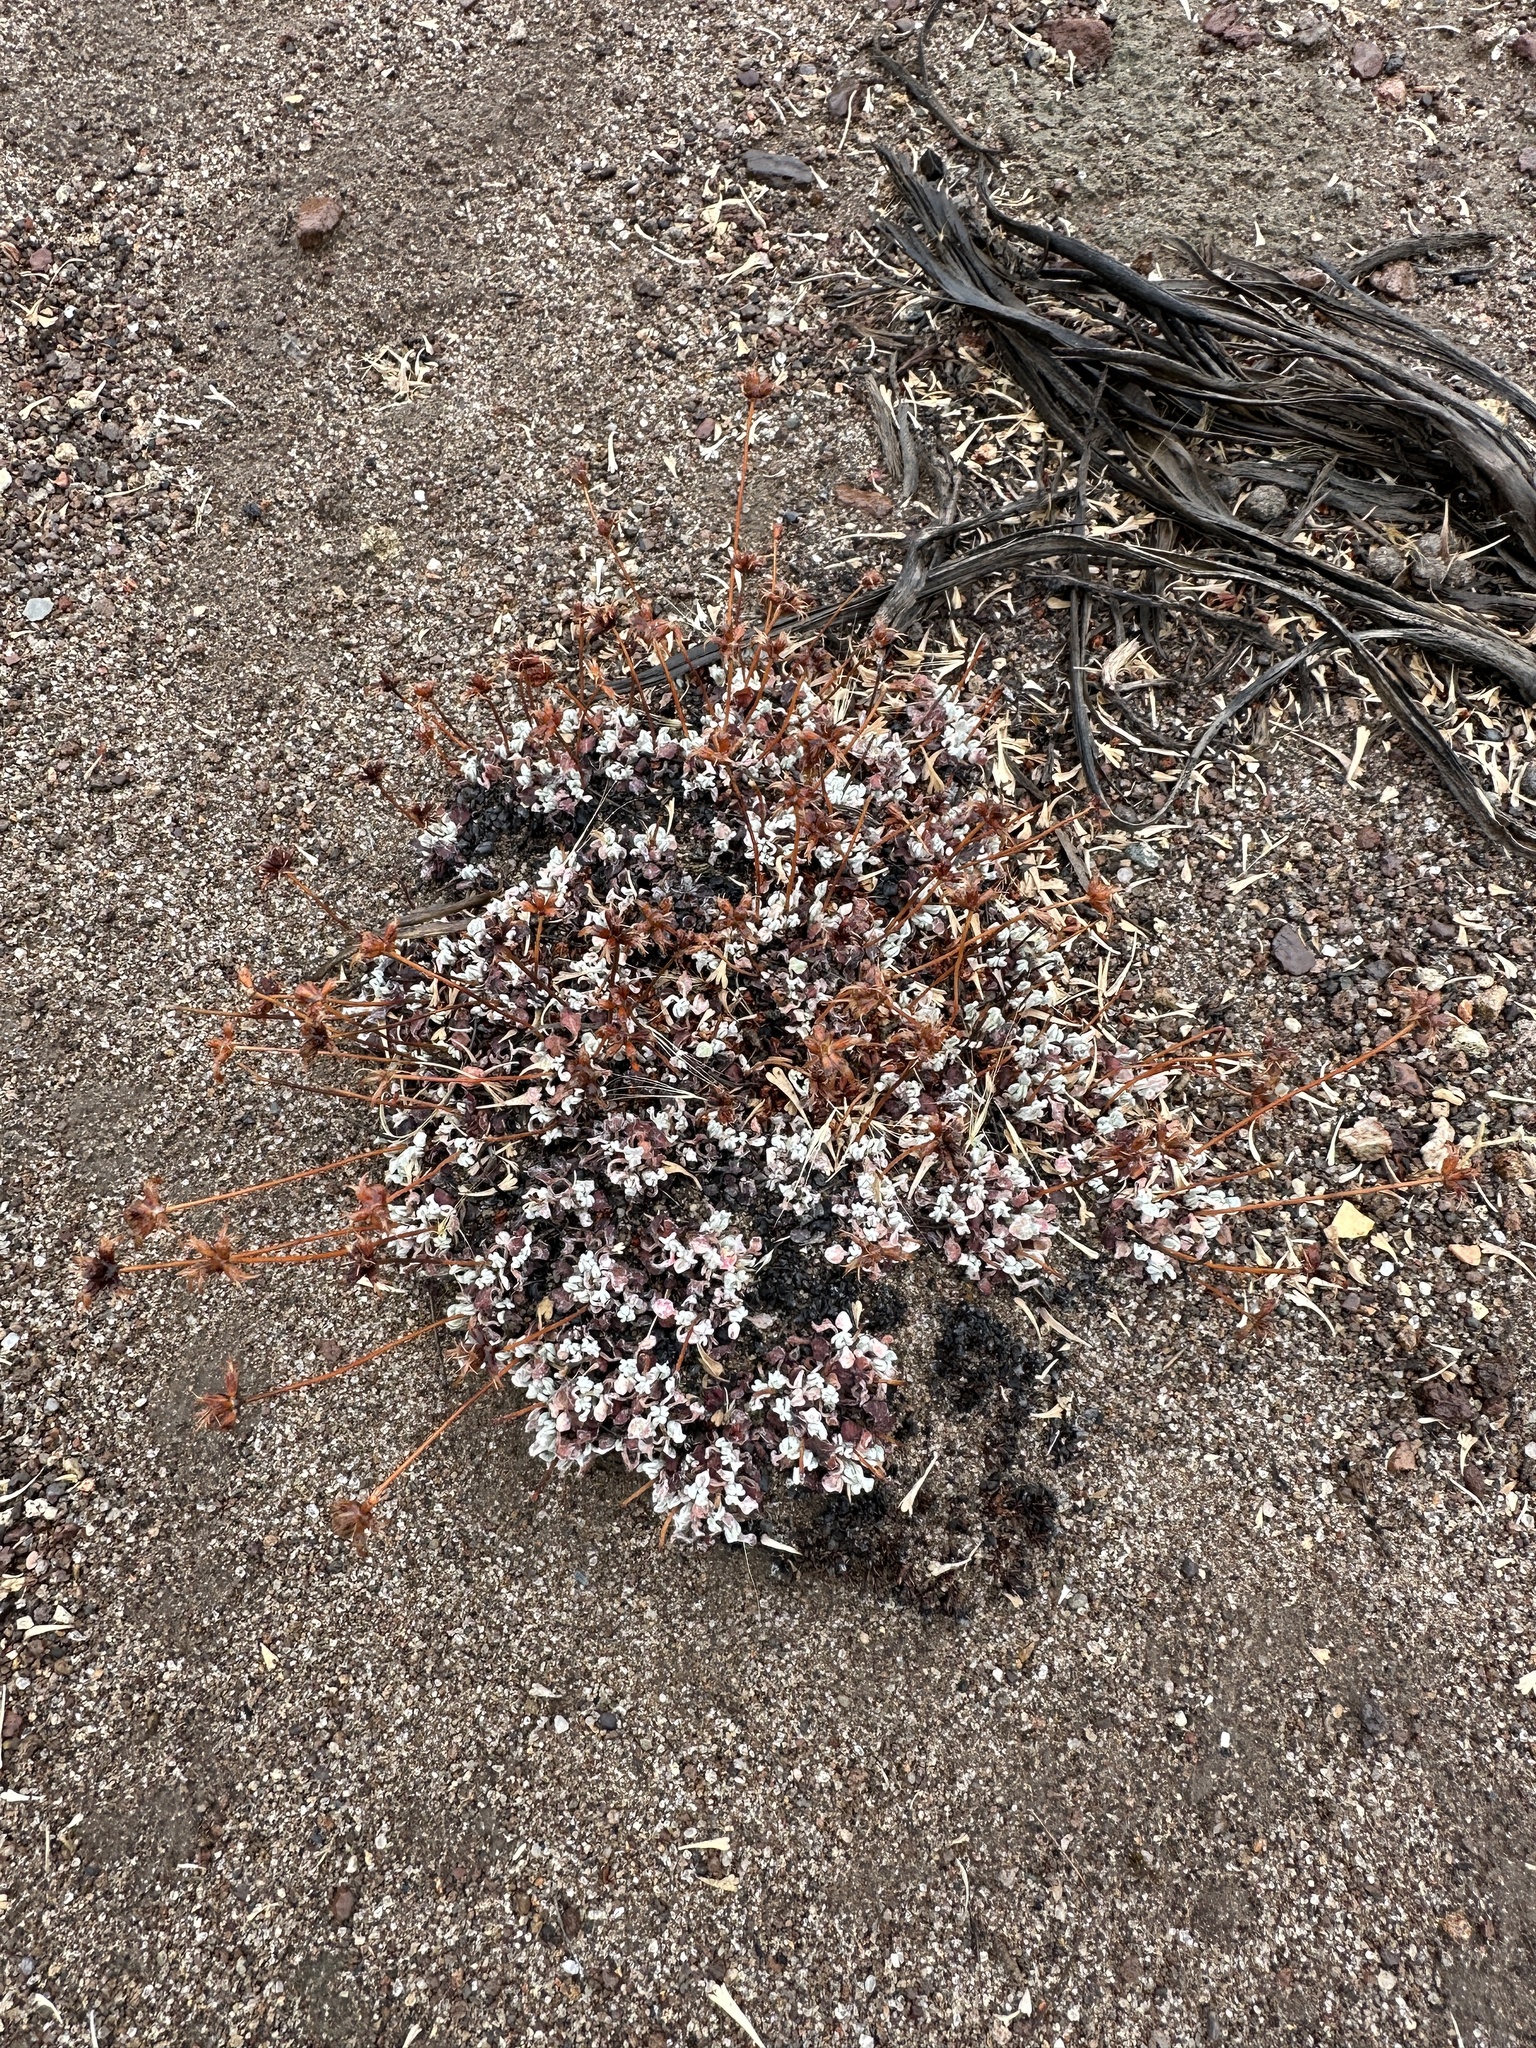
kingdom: Plantae
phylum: Tracheophyta
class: Magnoliopsida
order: Caryophyllales
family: Polygonaceae
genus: Eriogonum
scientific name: Eriogonum ovalifolium
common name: Cushion buckwheat
